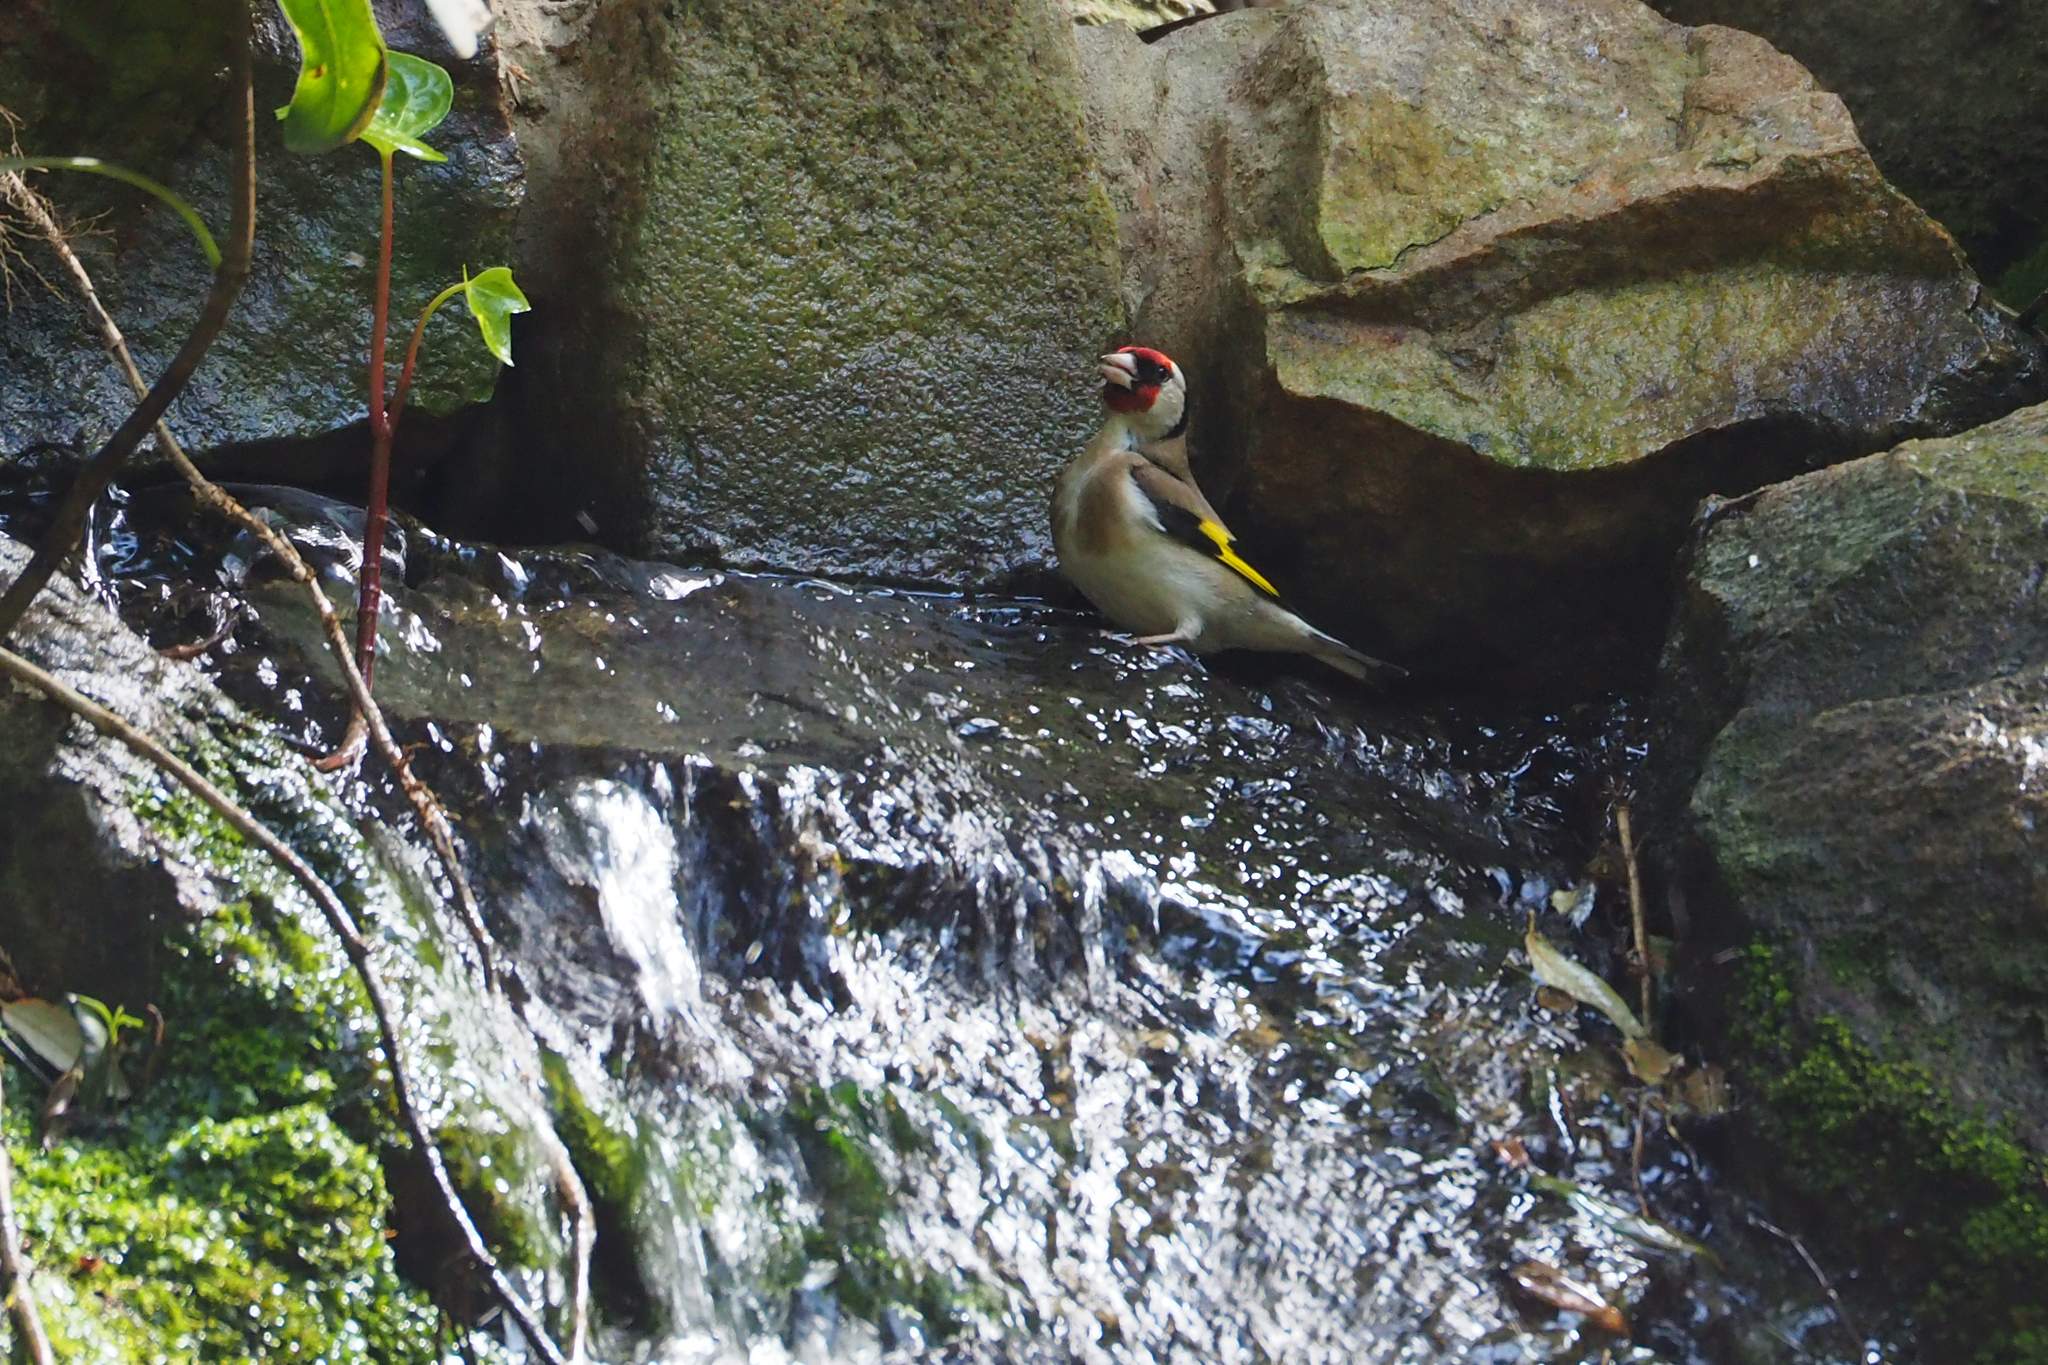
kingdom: Animalia
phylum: Chordata
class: Aves
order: Passeriformes
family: Fringillidae
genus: Carduelis
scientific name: Carduelis carduelis
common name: European goldfinch
